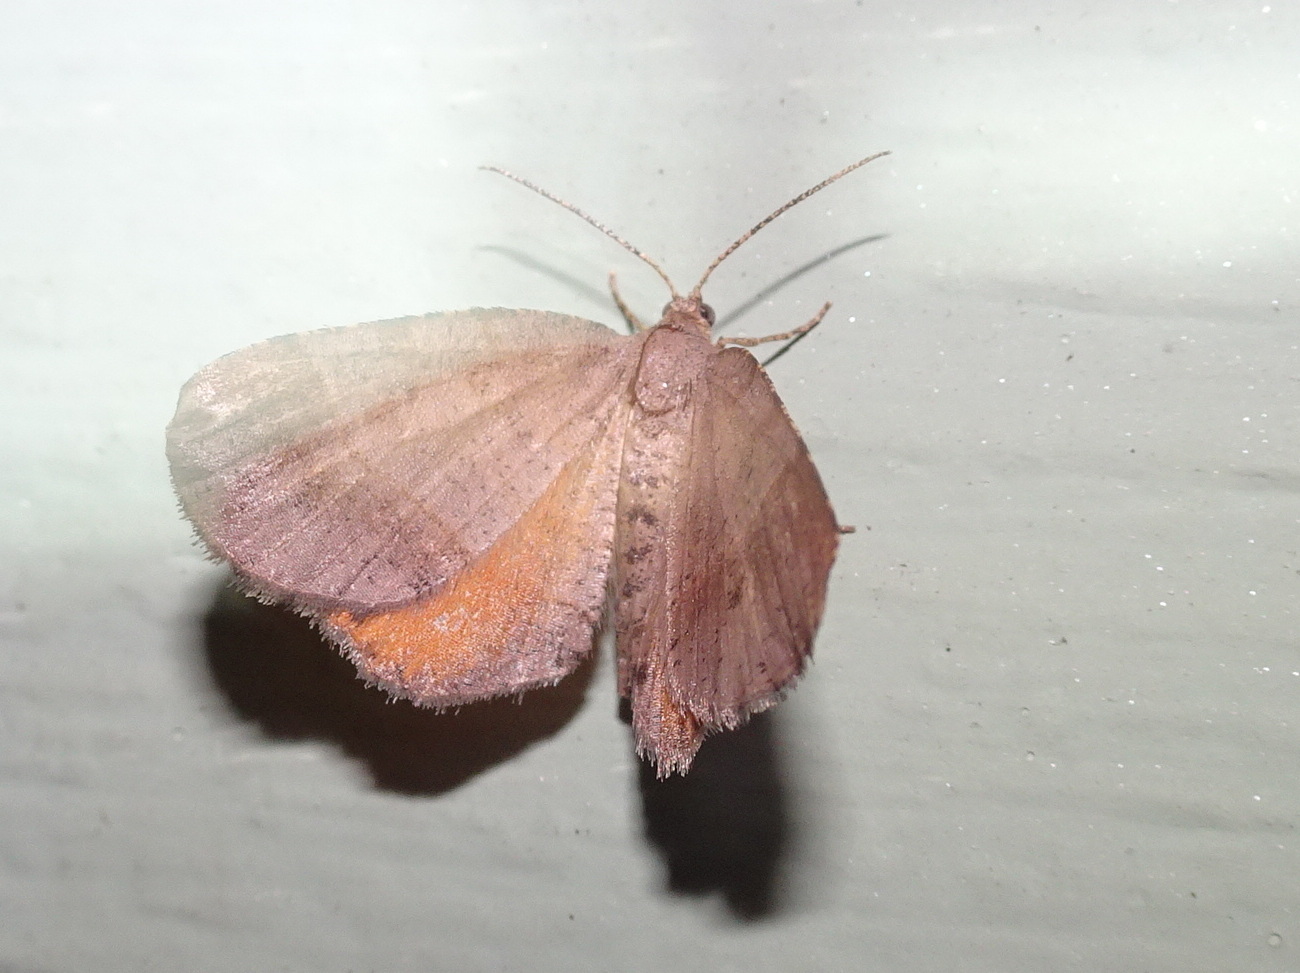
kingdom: Animalia
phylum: Arthropoda
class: Insecta
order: Lepidoptera
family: Geometridae
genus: Mellilla
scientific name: Mellilla xanthometata
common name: Orange wing moth
